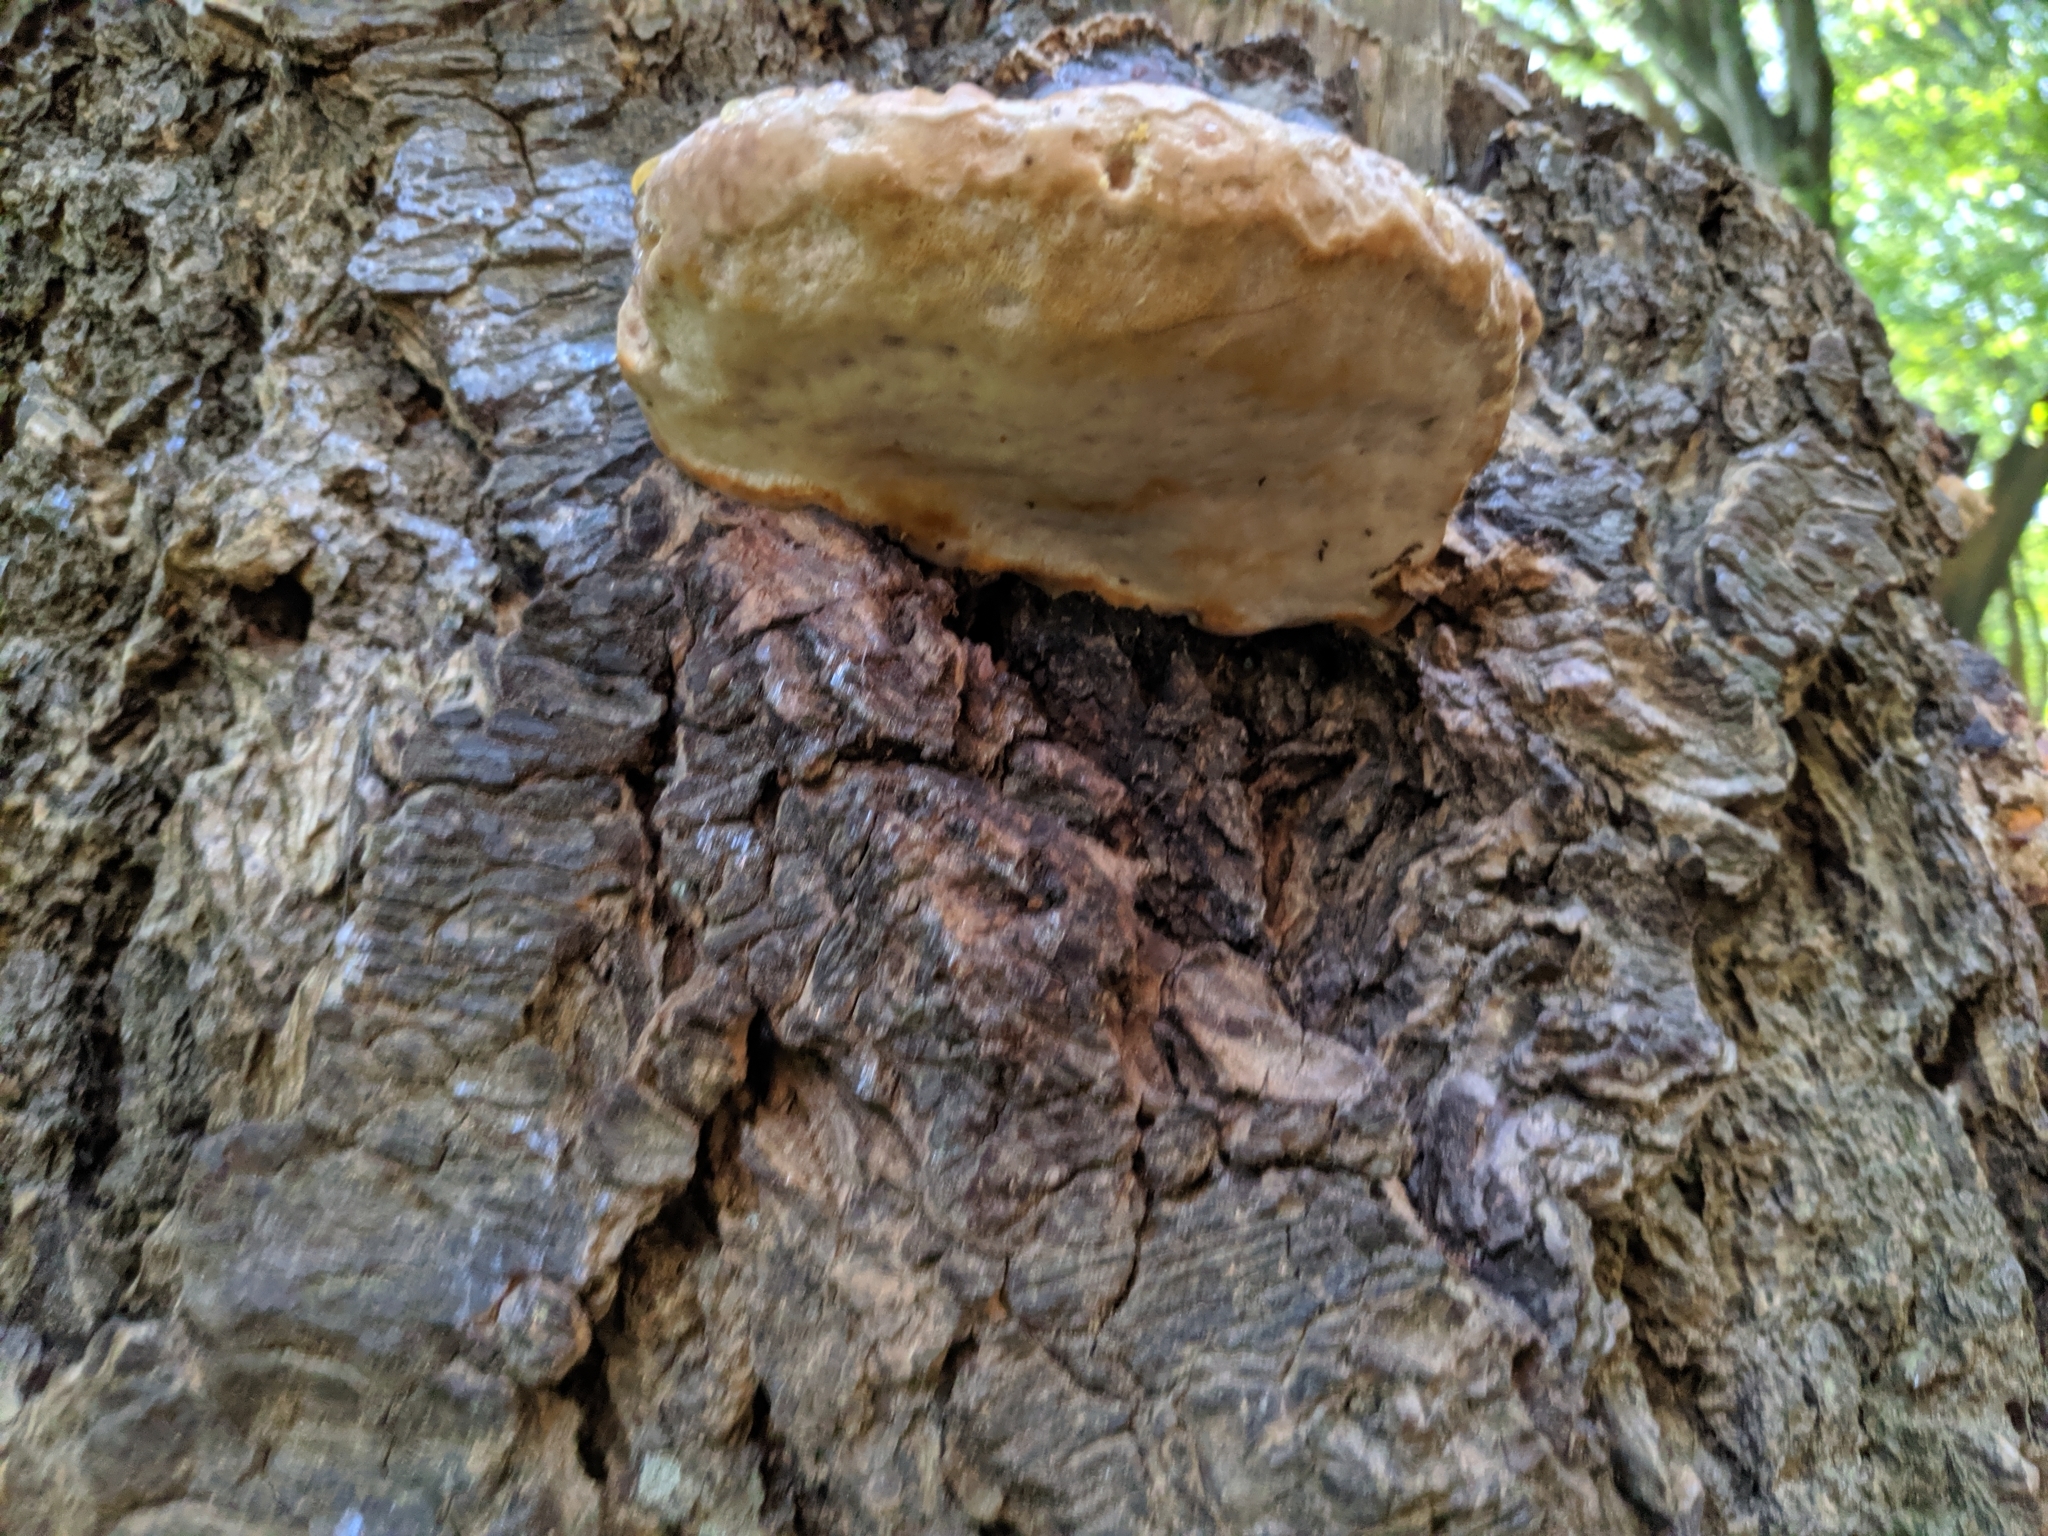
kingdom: Fungi
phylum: Basidiomycota
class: Agaricomycetes
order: Polyporales
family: Fomitopsidaceae
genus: Fomitopsis
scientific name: Fomitopsis pinicola
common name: Red-belted bracket
